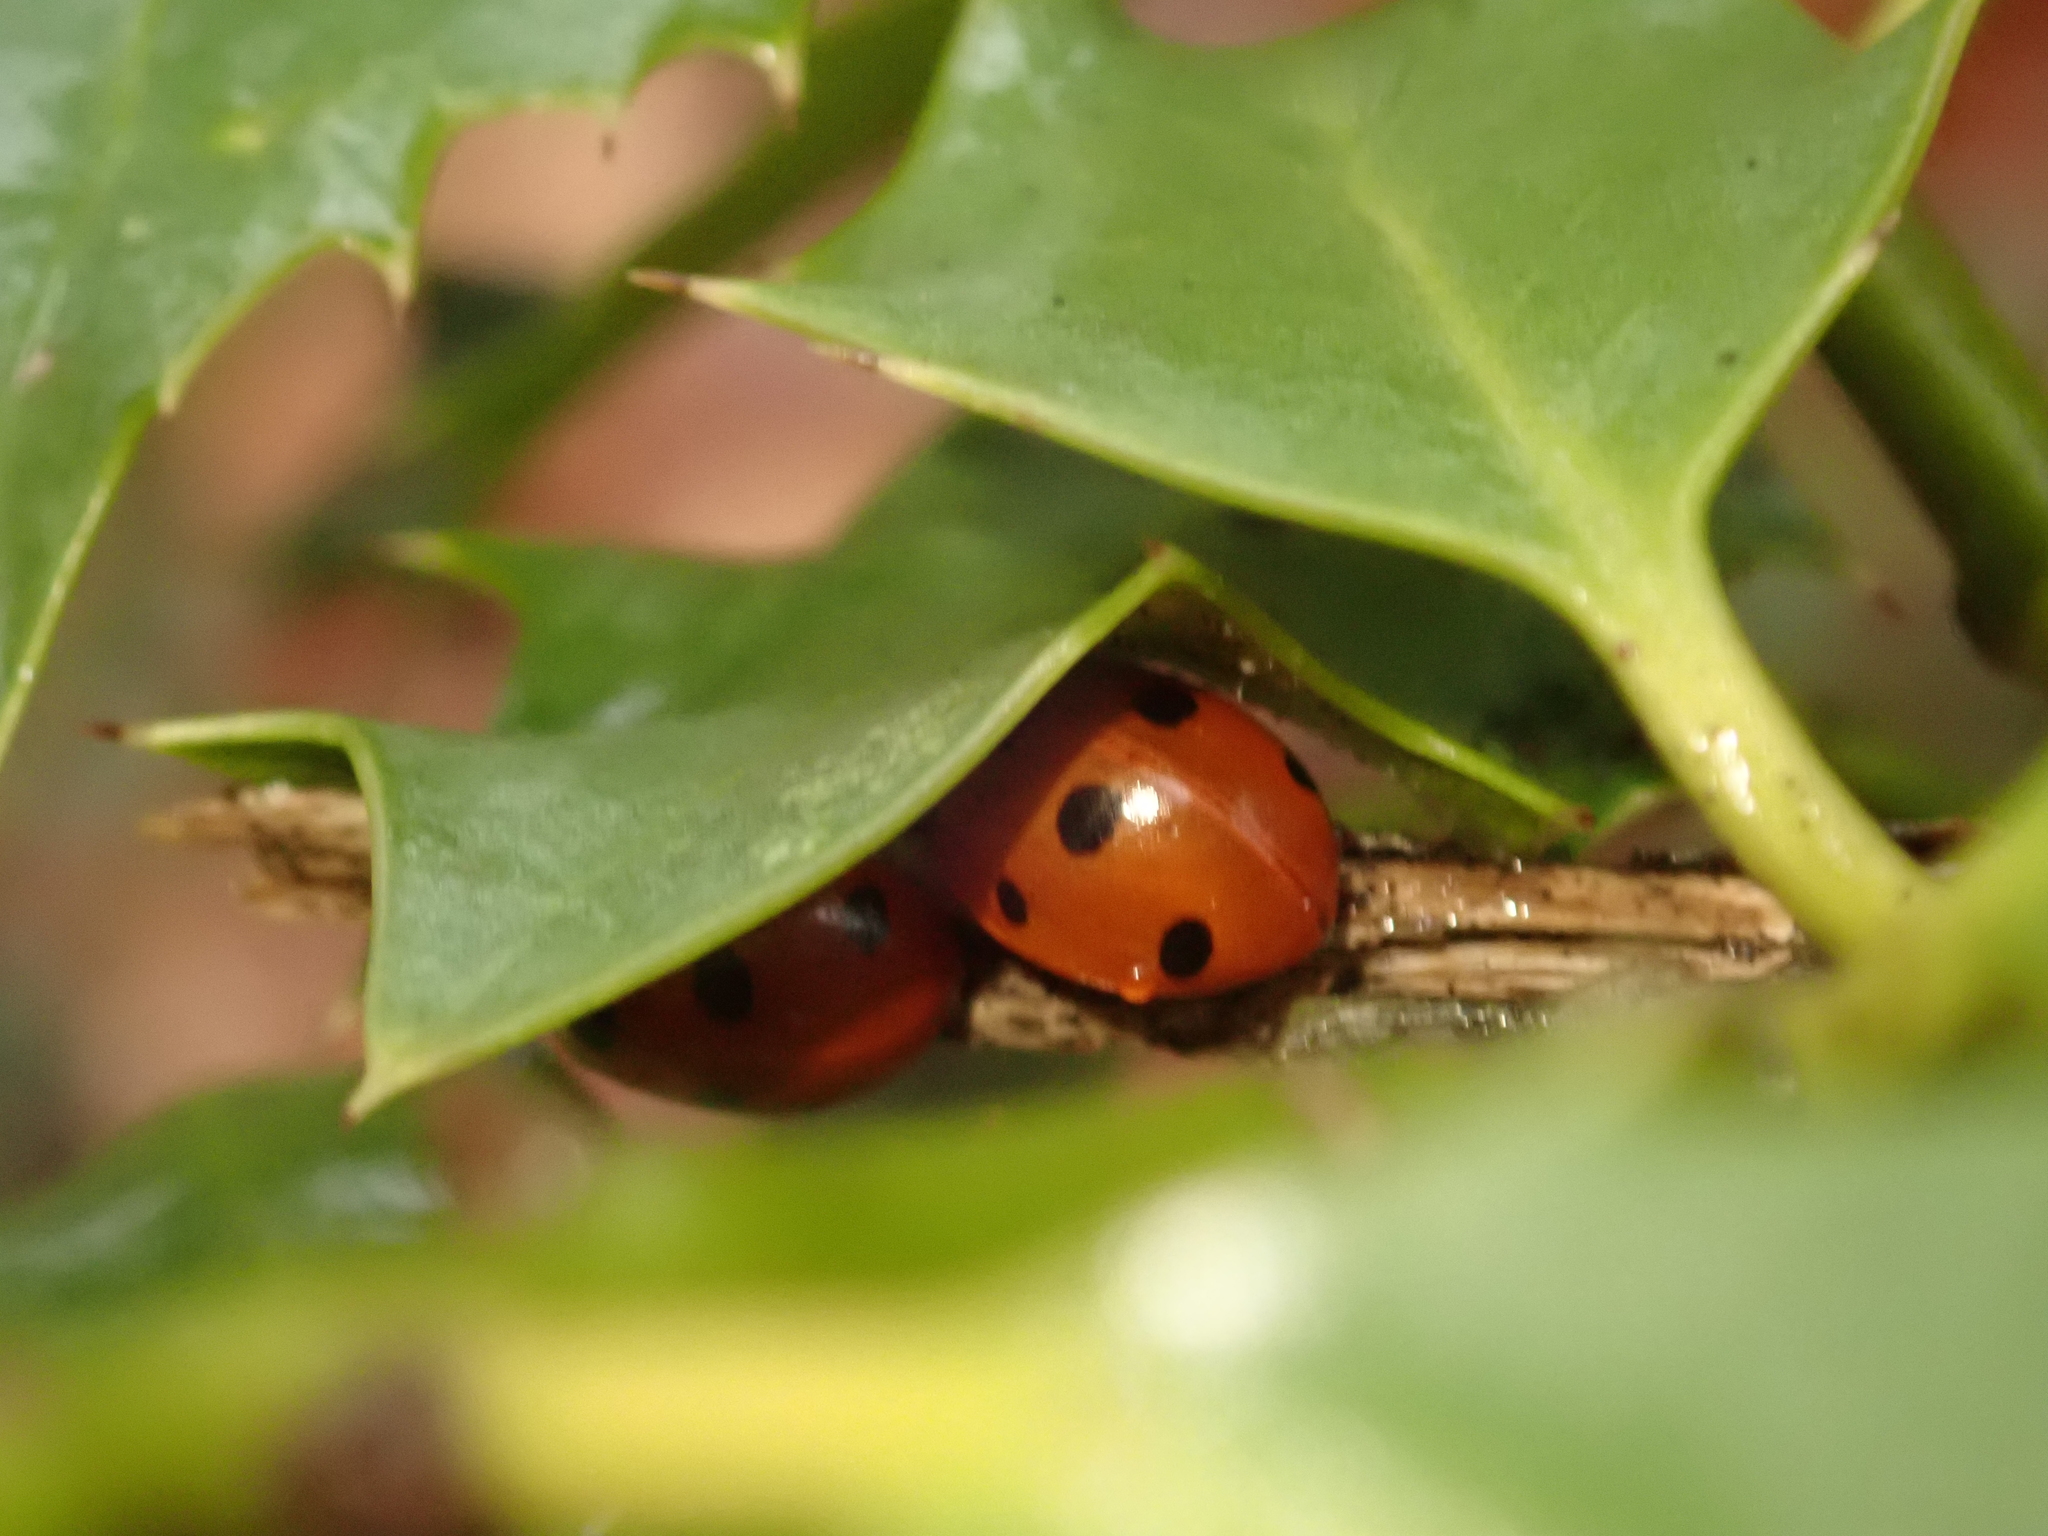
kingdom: Animalia
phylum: Arthropoda
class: Insecta
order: Coleoptera
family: Coccinellidae
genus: Coccinella
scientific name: Coccinella septempunctata
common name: Sevenspotted lady beetle
